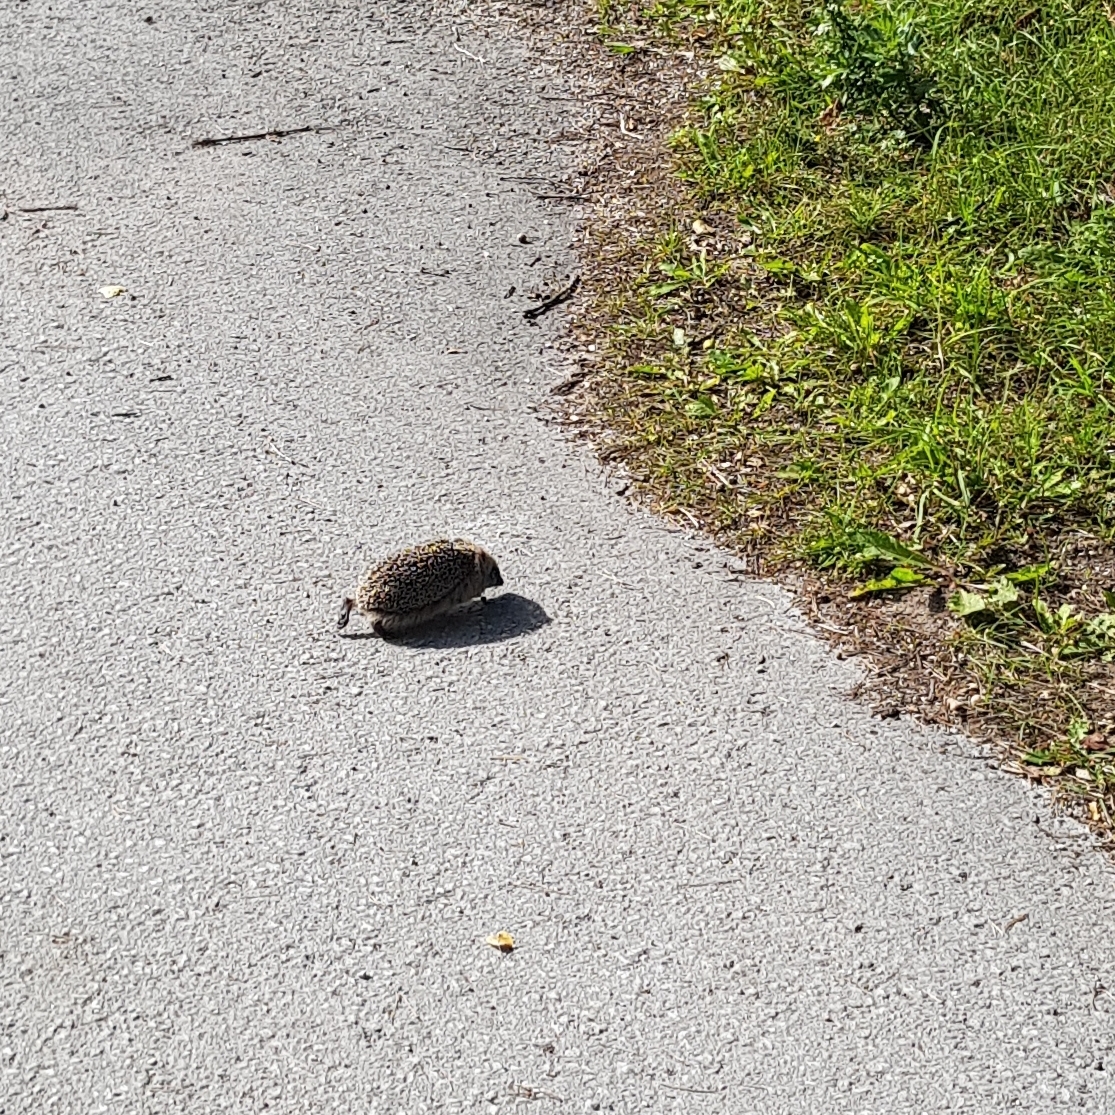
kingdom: Animalia
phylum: Chordata
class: Mammalia
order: Erinaceomorpha
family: Erinaceidae
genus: Erinaceus
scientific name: Erinaceus europaeus
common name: West european hedgehog
